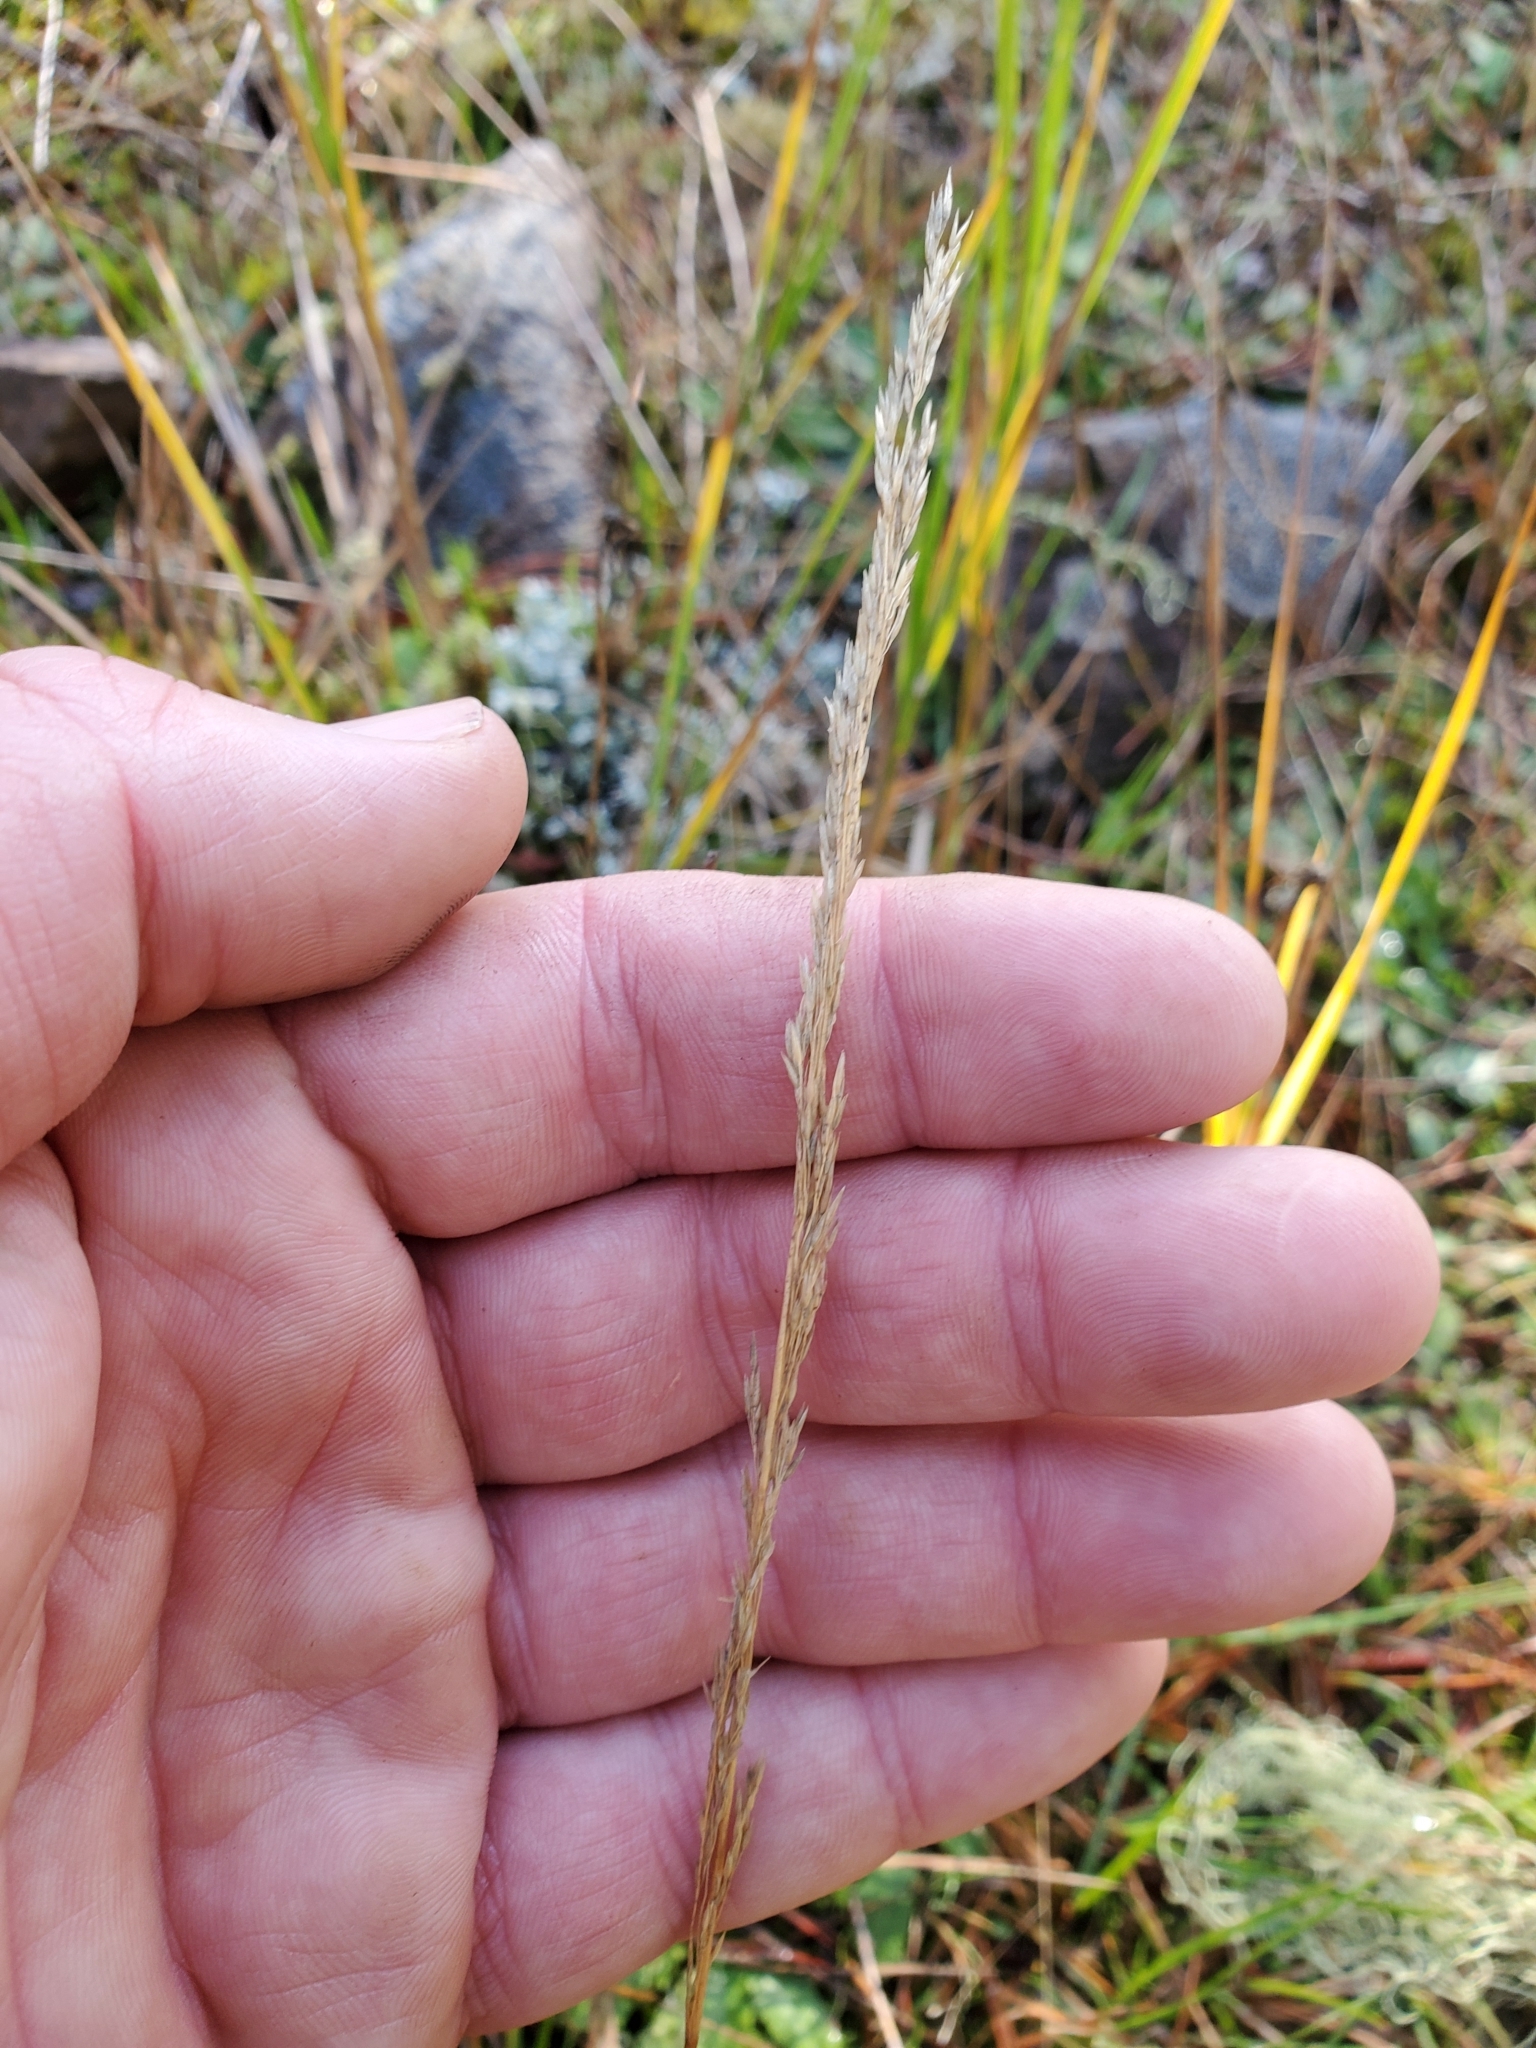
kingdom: Plantae
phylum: Tracheophyta
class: Liliopsida
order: Poales
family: Poaceae
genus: Agrostis
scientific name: Agrostis pallens
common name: Dune bent
